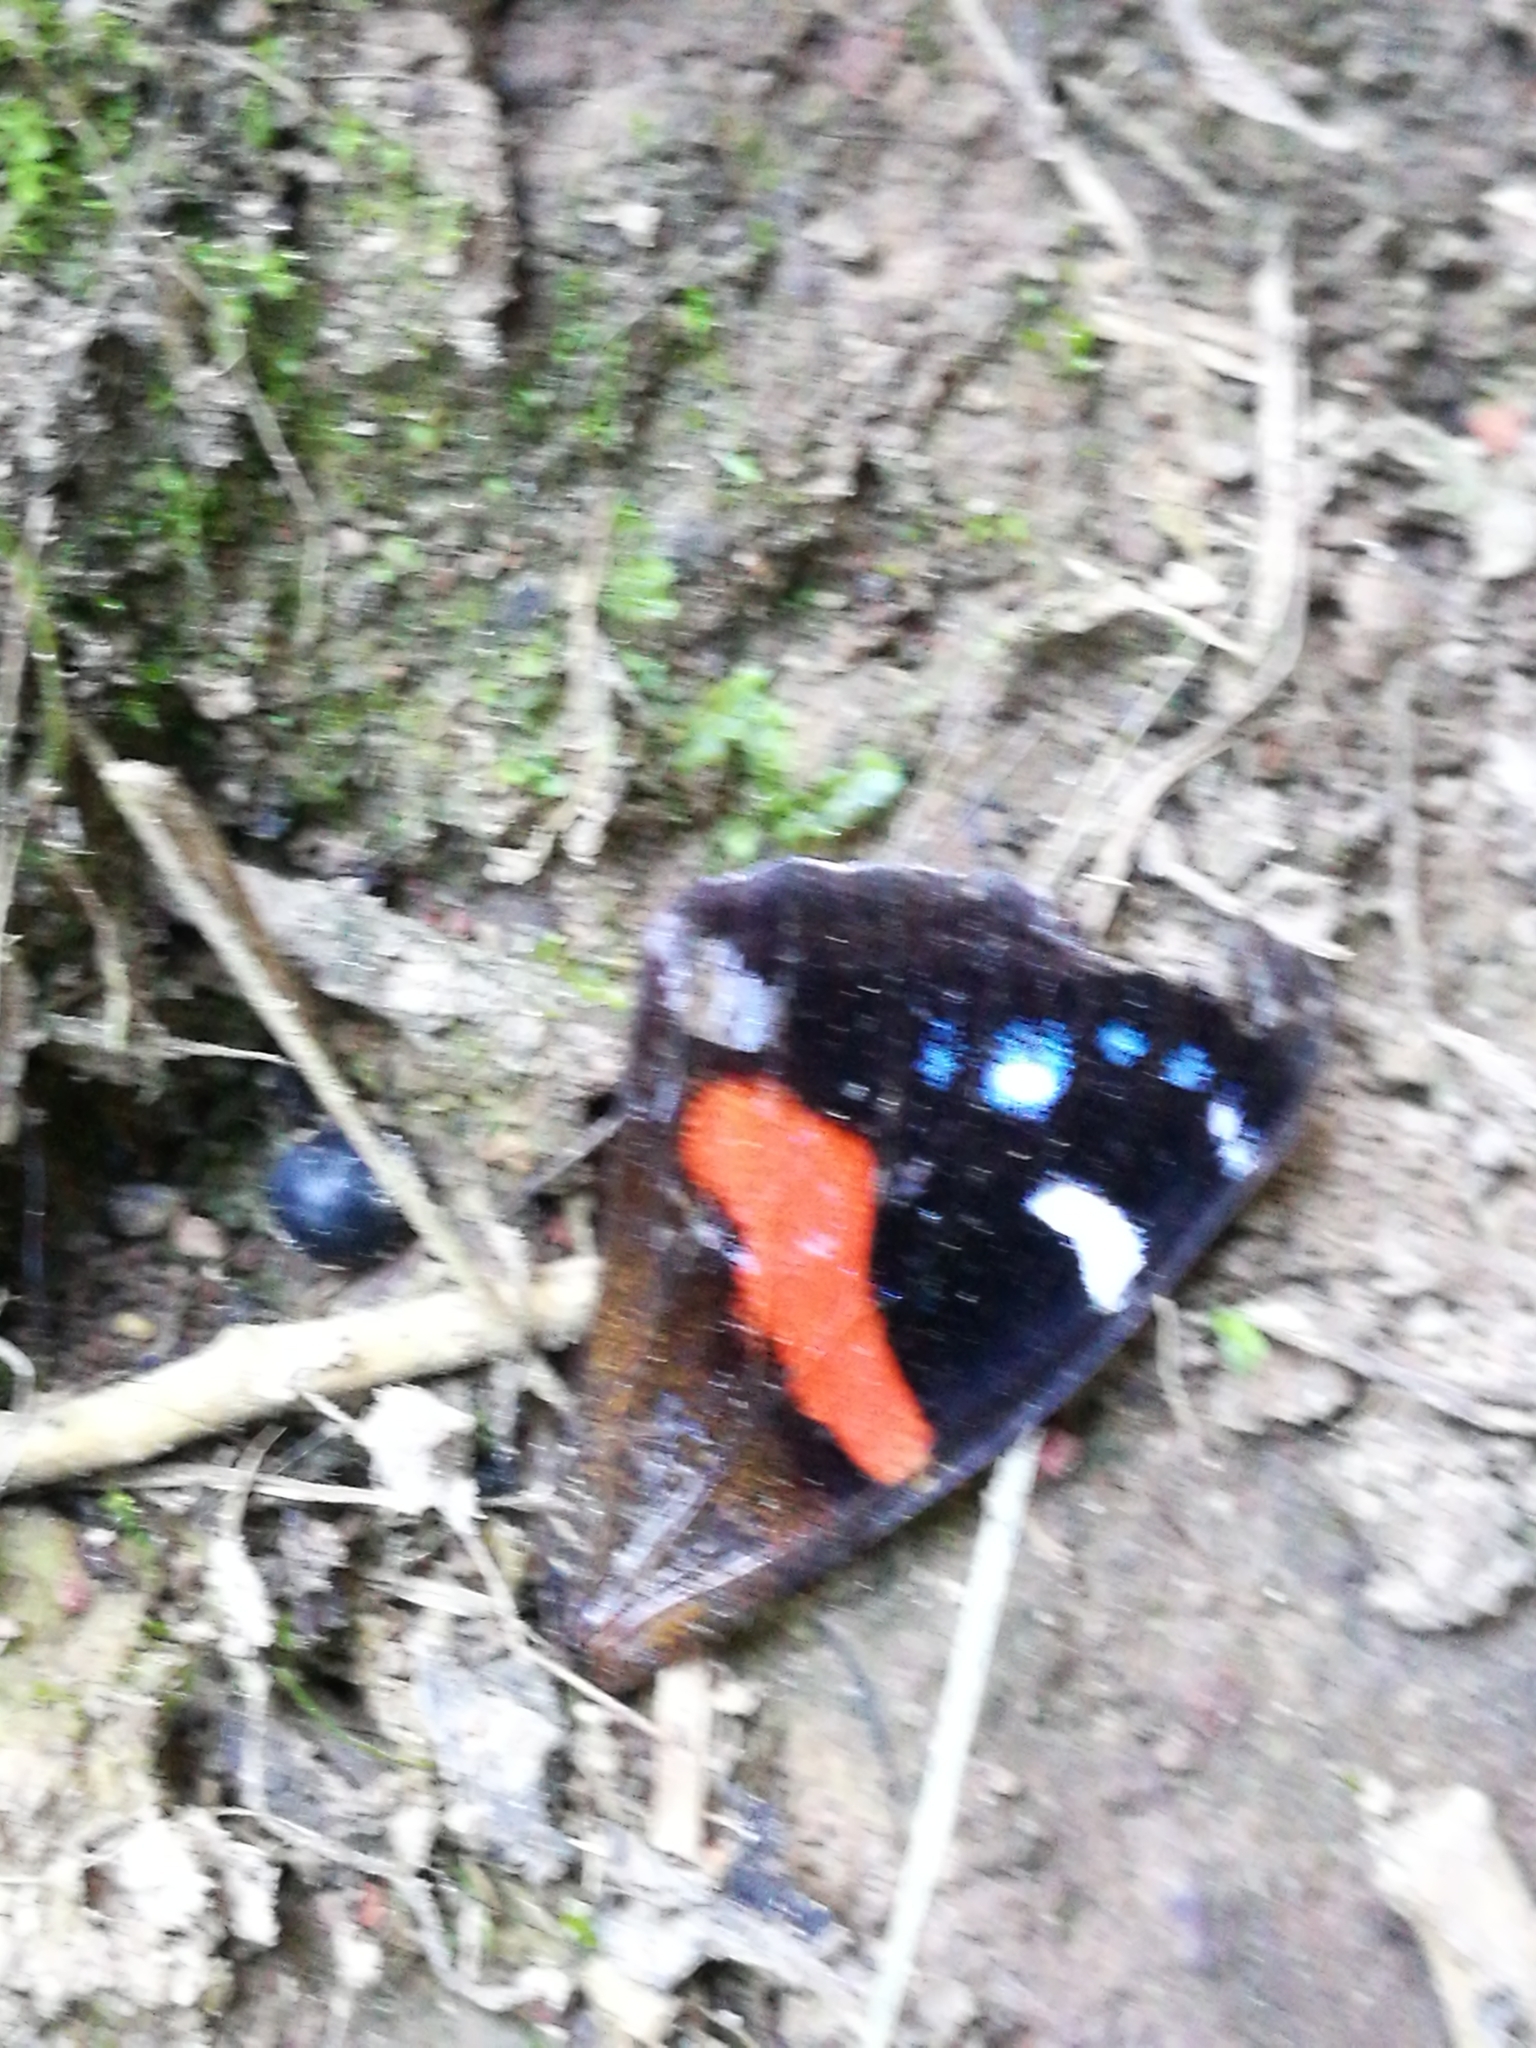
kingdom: Animalia
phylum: Arthropoda
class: Insecta
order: Lepidoptera
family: Nymphalidae
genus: Vanessa
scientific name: Vanessa gonerilla
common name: New zealand red admiral
